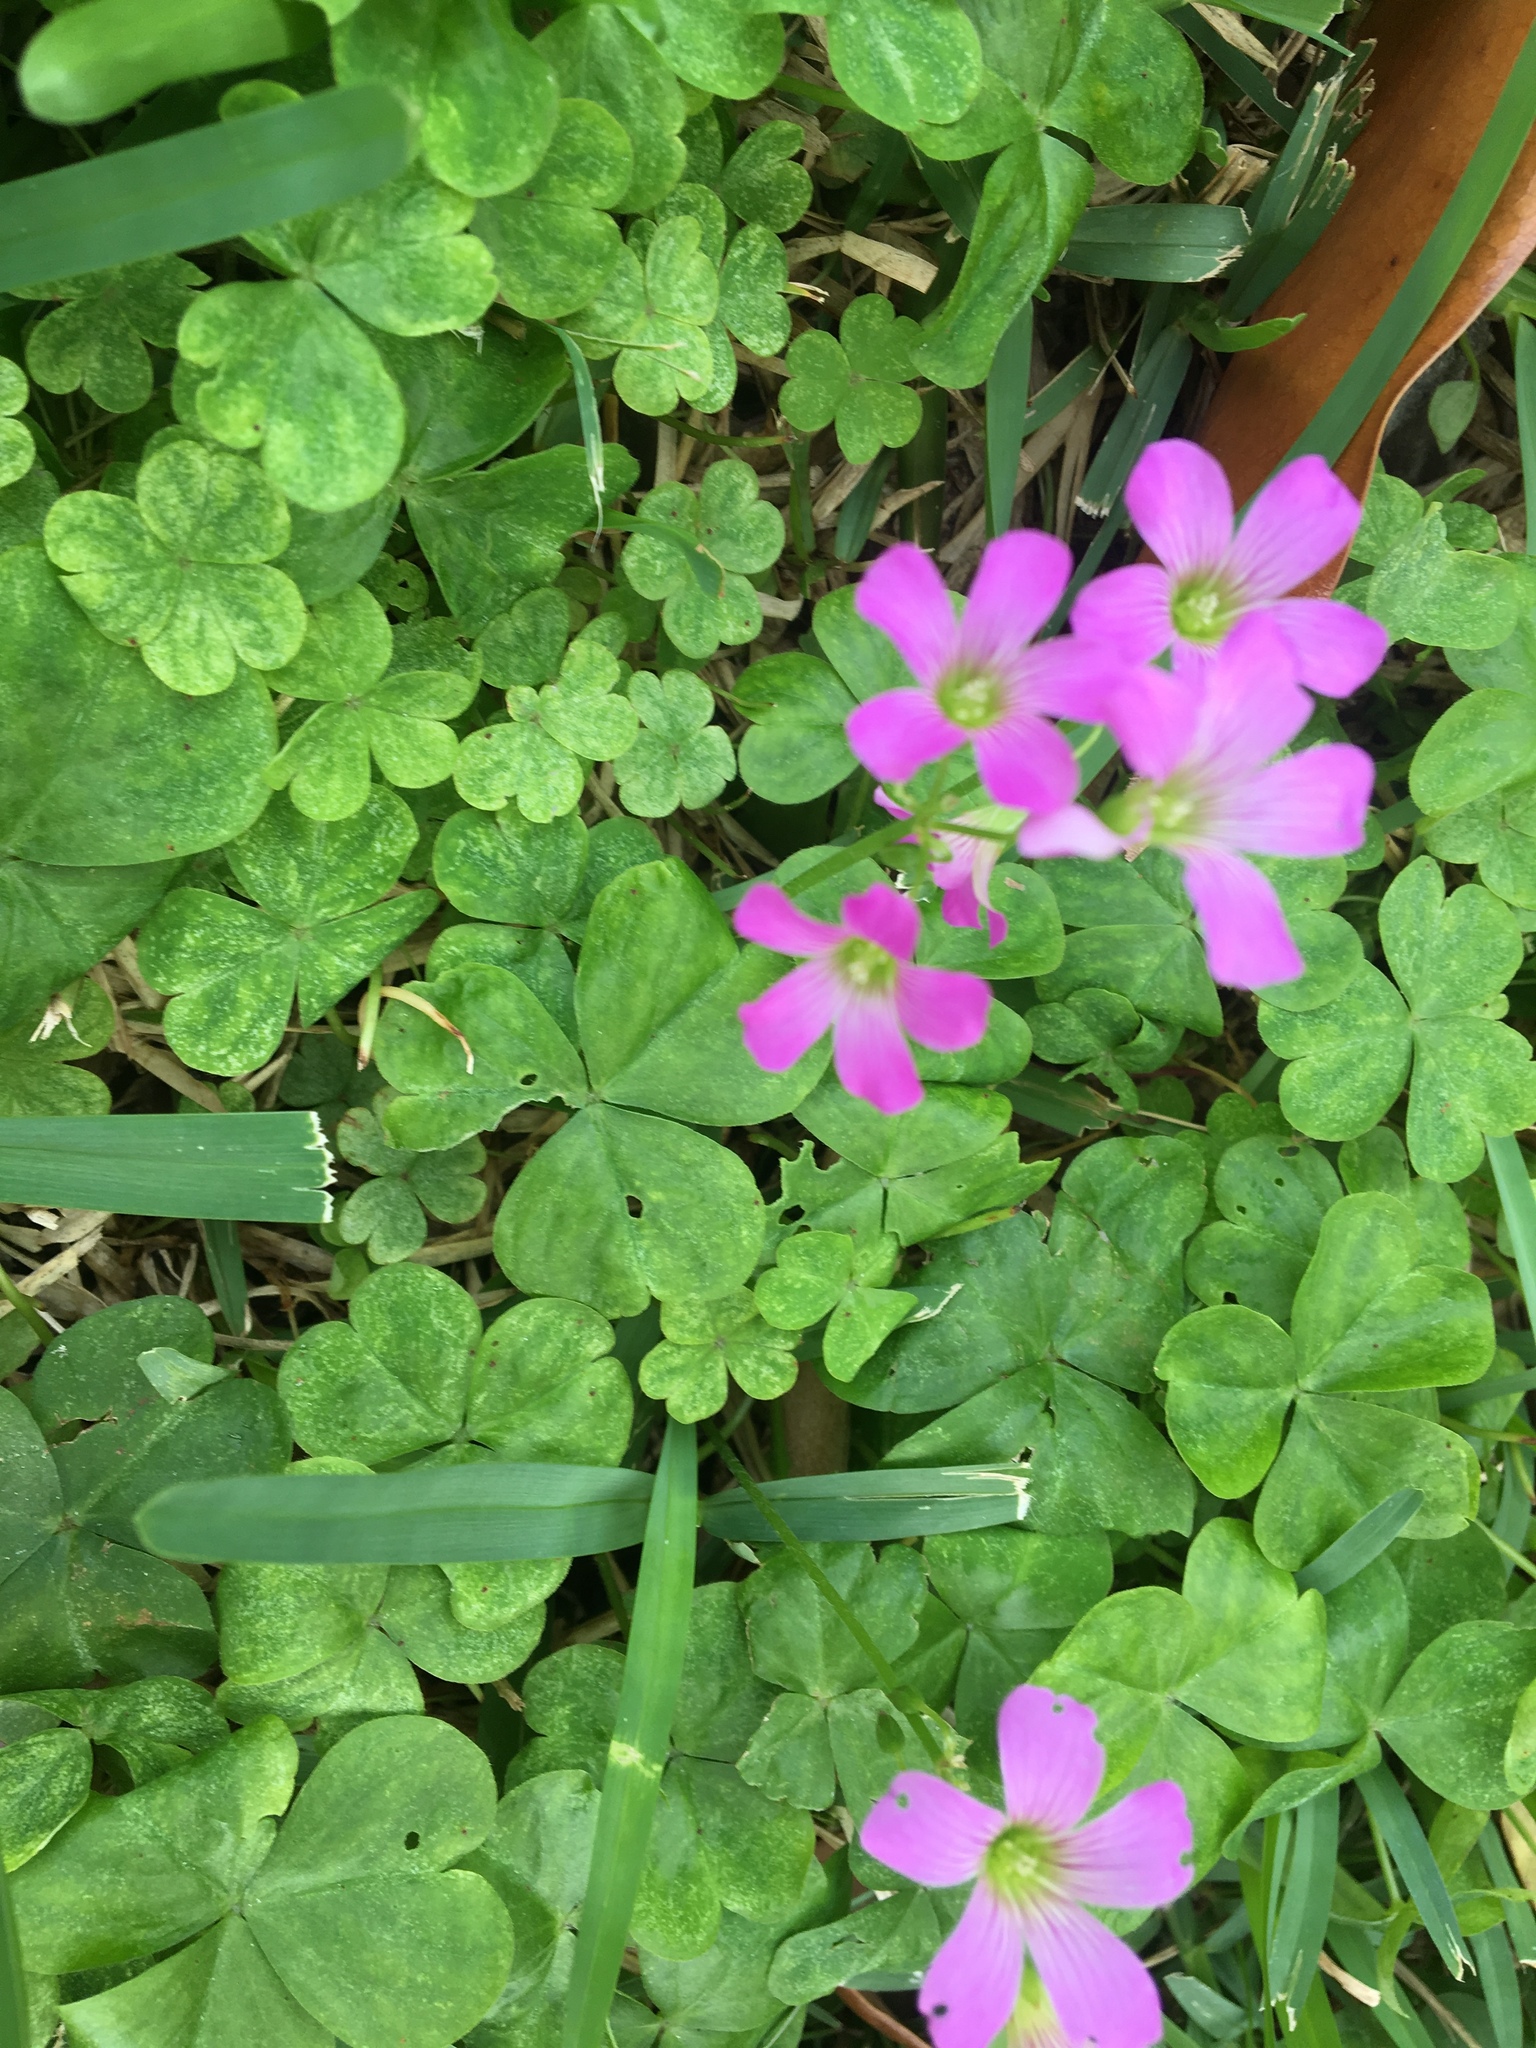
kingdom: Plantae
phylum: Tracheophyta
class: Magnoliopsida
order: Oxalidales
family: Oxalidaceae
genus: Oxalis
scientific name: Oxalis debilis
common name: Large-flowered pink-sorrel
